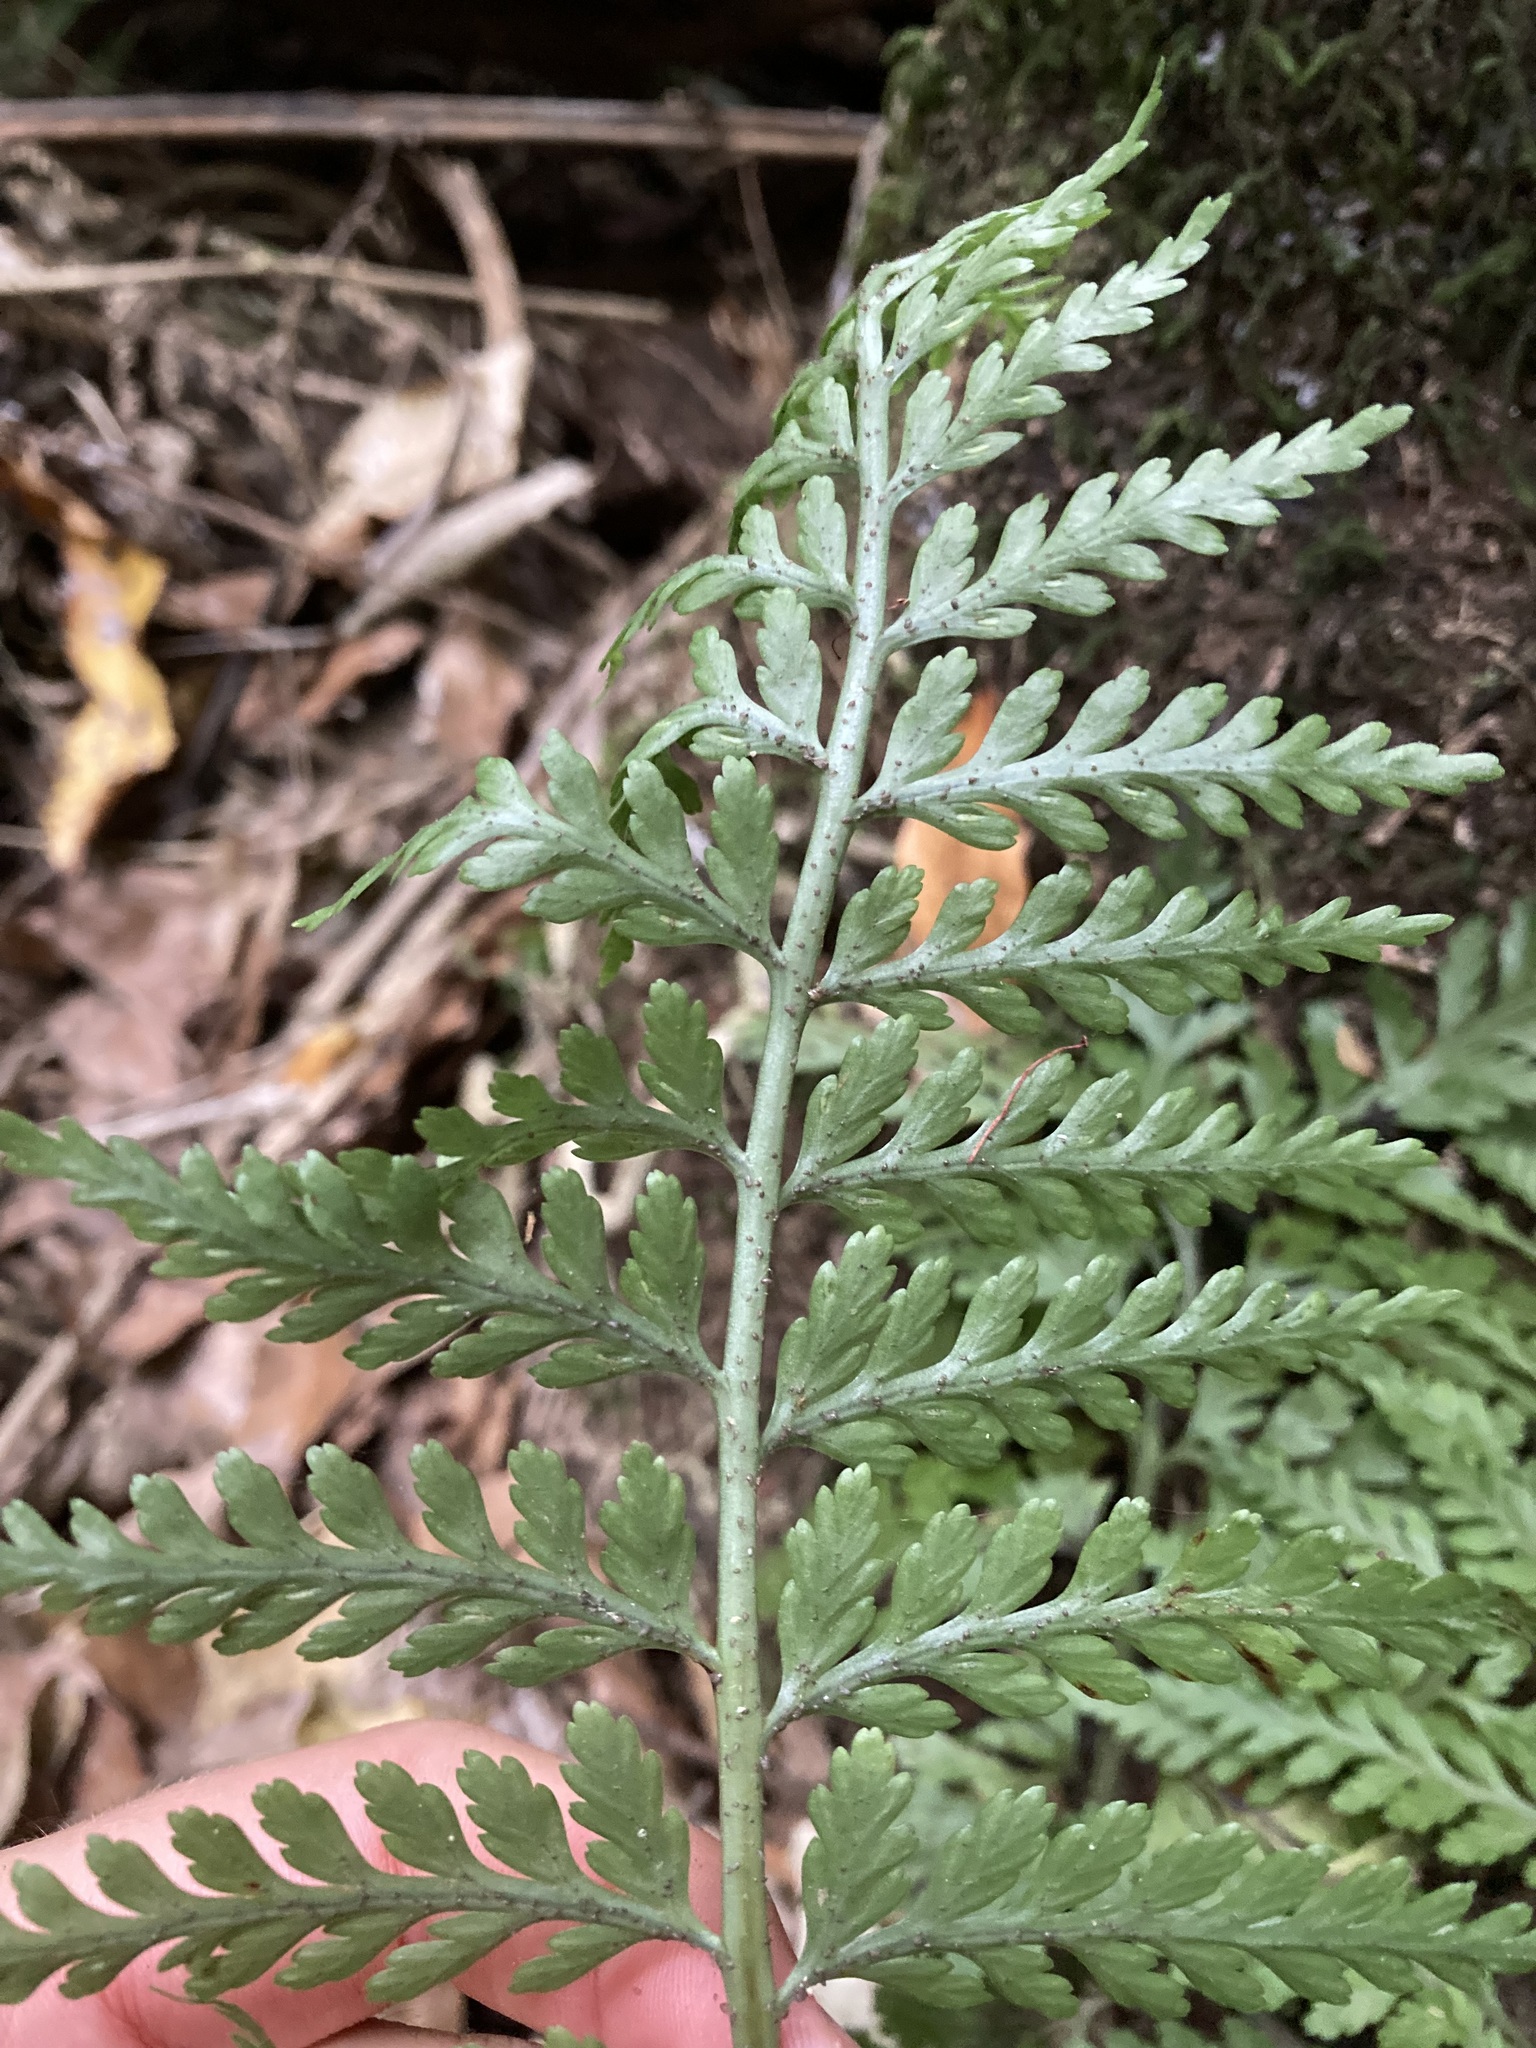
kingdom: Plantae
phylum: Tracheophyta
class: Polypodiopsida
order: Polypodiales
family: Aspleniaceae
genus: Asplenium
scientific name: Asplenium
